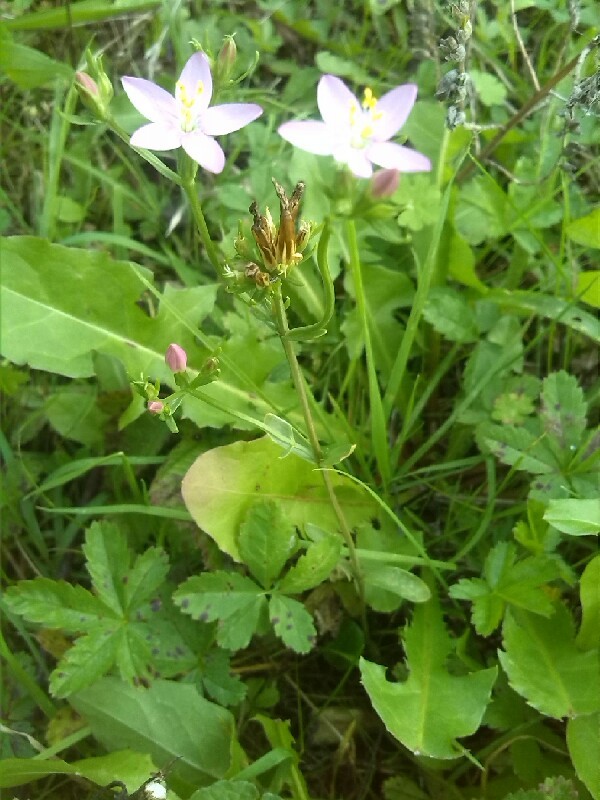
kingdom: Plantae
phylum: Tracheophyta
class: Magnoliopsida
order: Gentianales
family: Gentianaceae
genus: Centaurium
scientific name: Centaurium erythraea
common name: Common centaury
